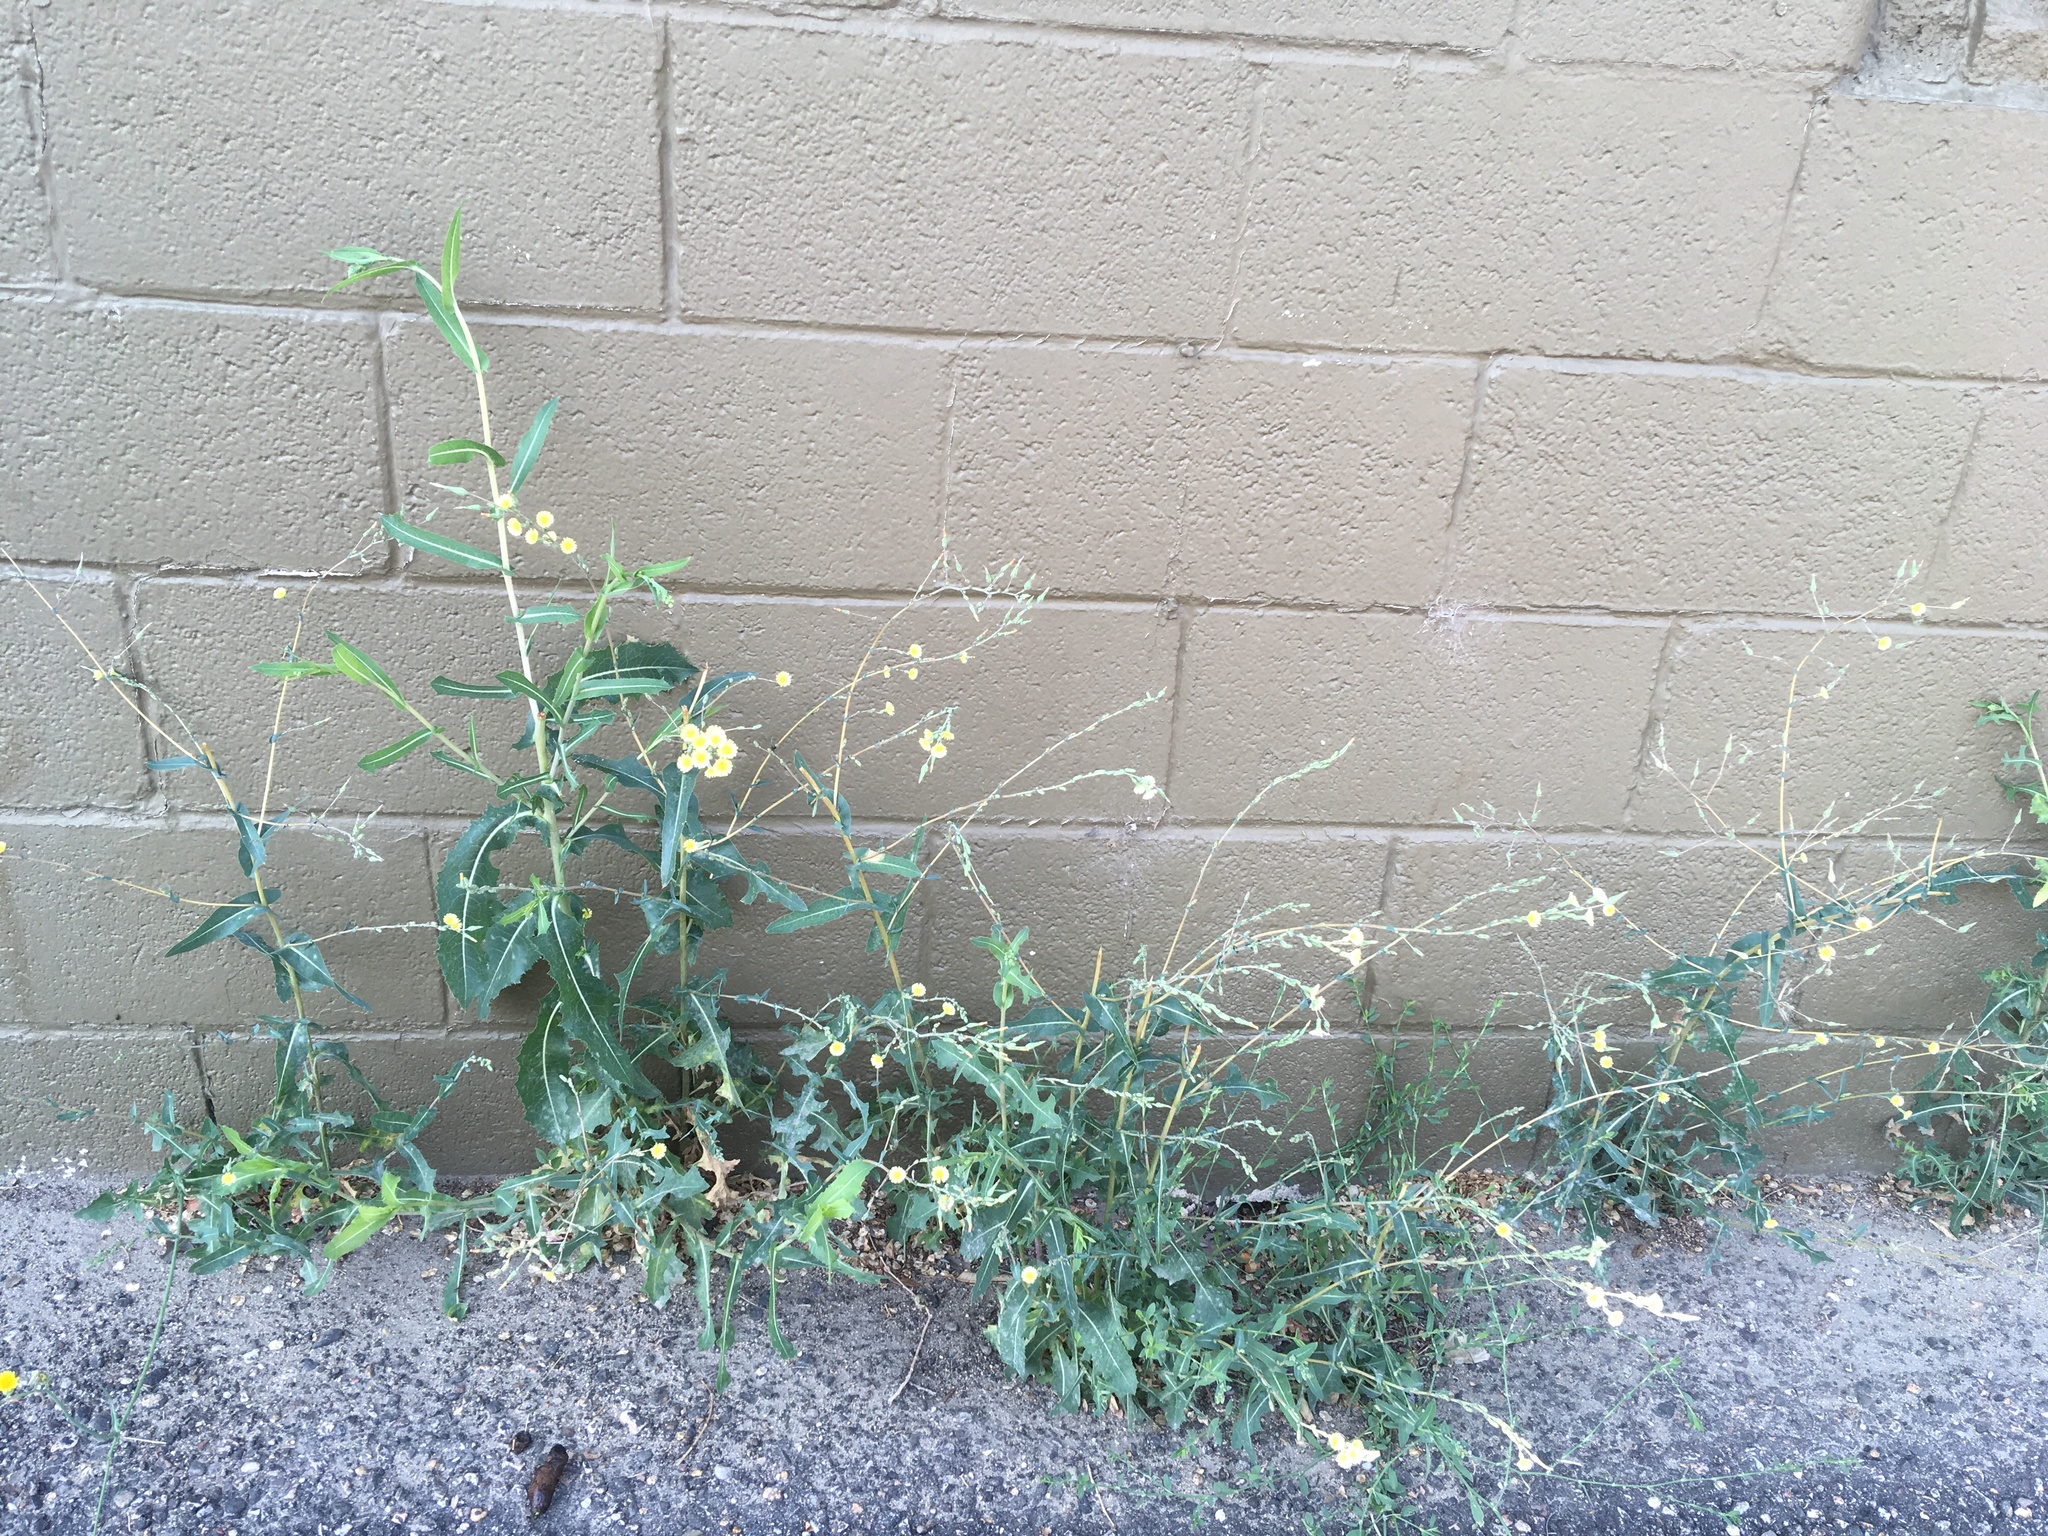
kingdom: Plantae
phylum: Tracheophyta
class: Magnoliopsida
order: Asterales
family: Asteraceae
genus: Lactuca
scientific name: Lactuca serriola
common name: Prickly lettuce
